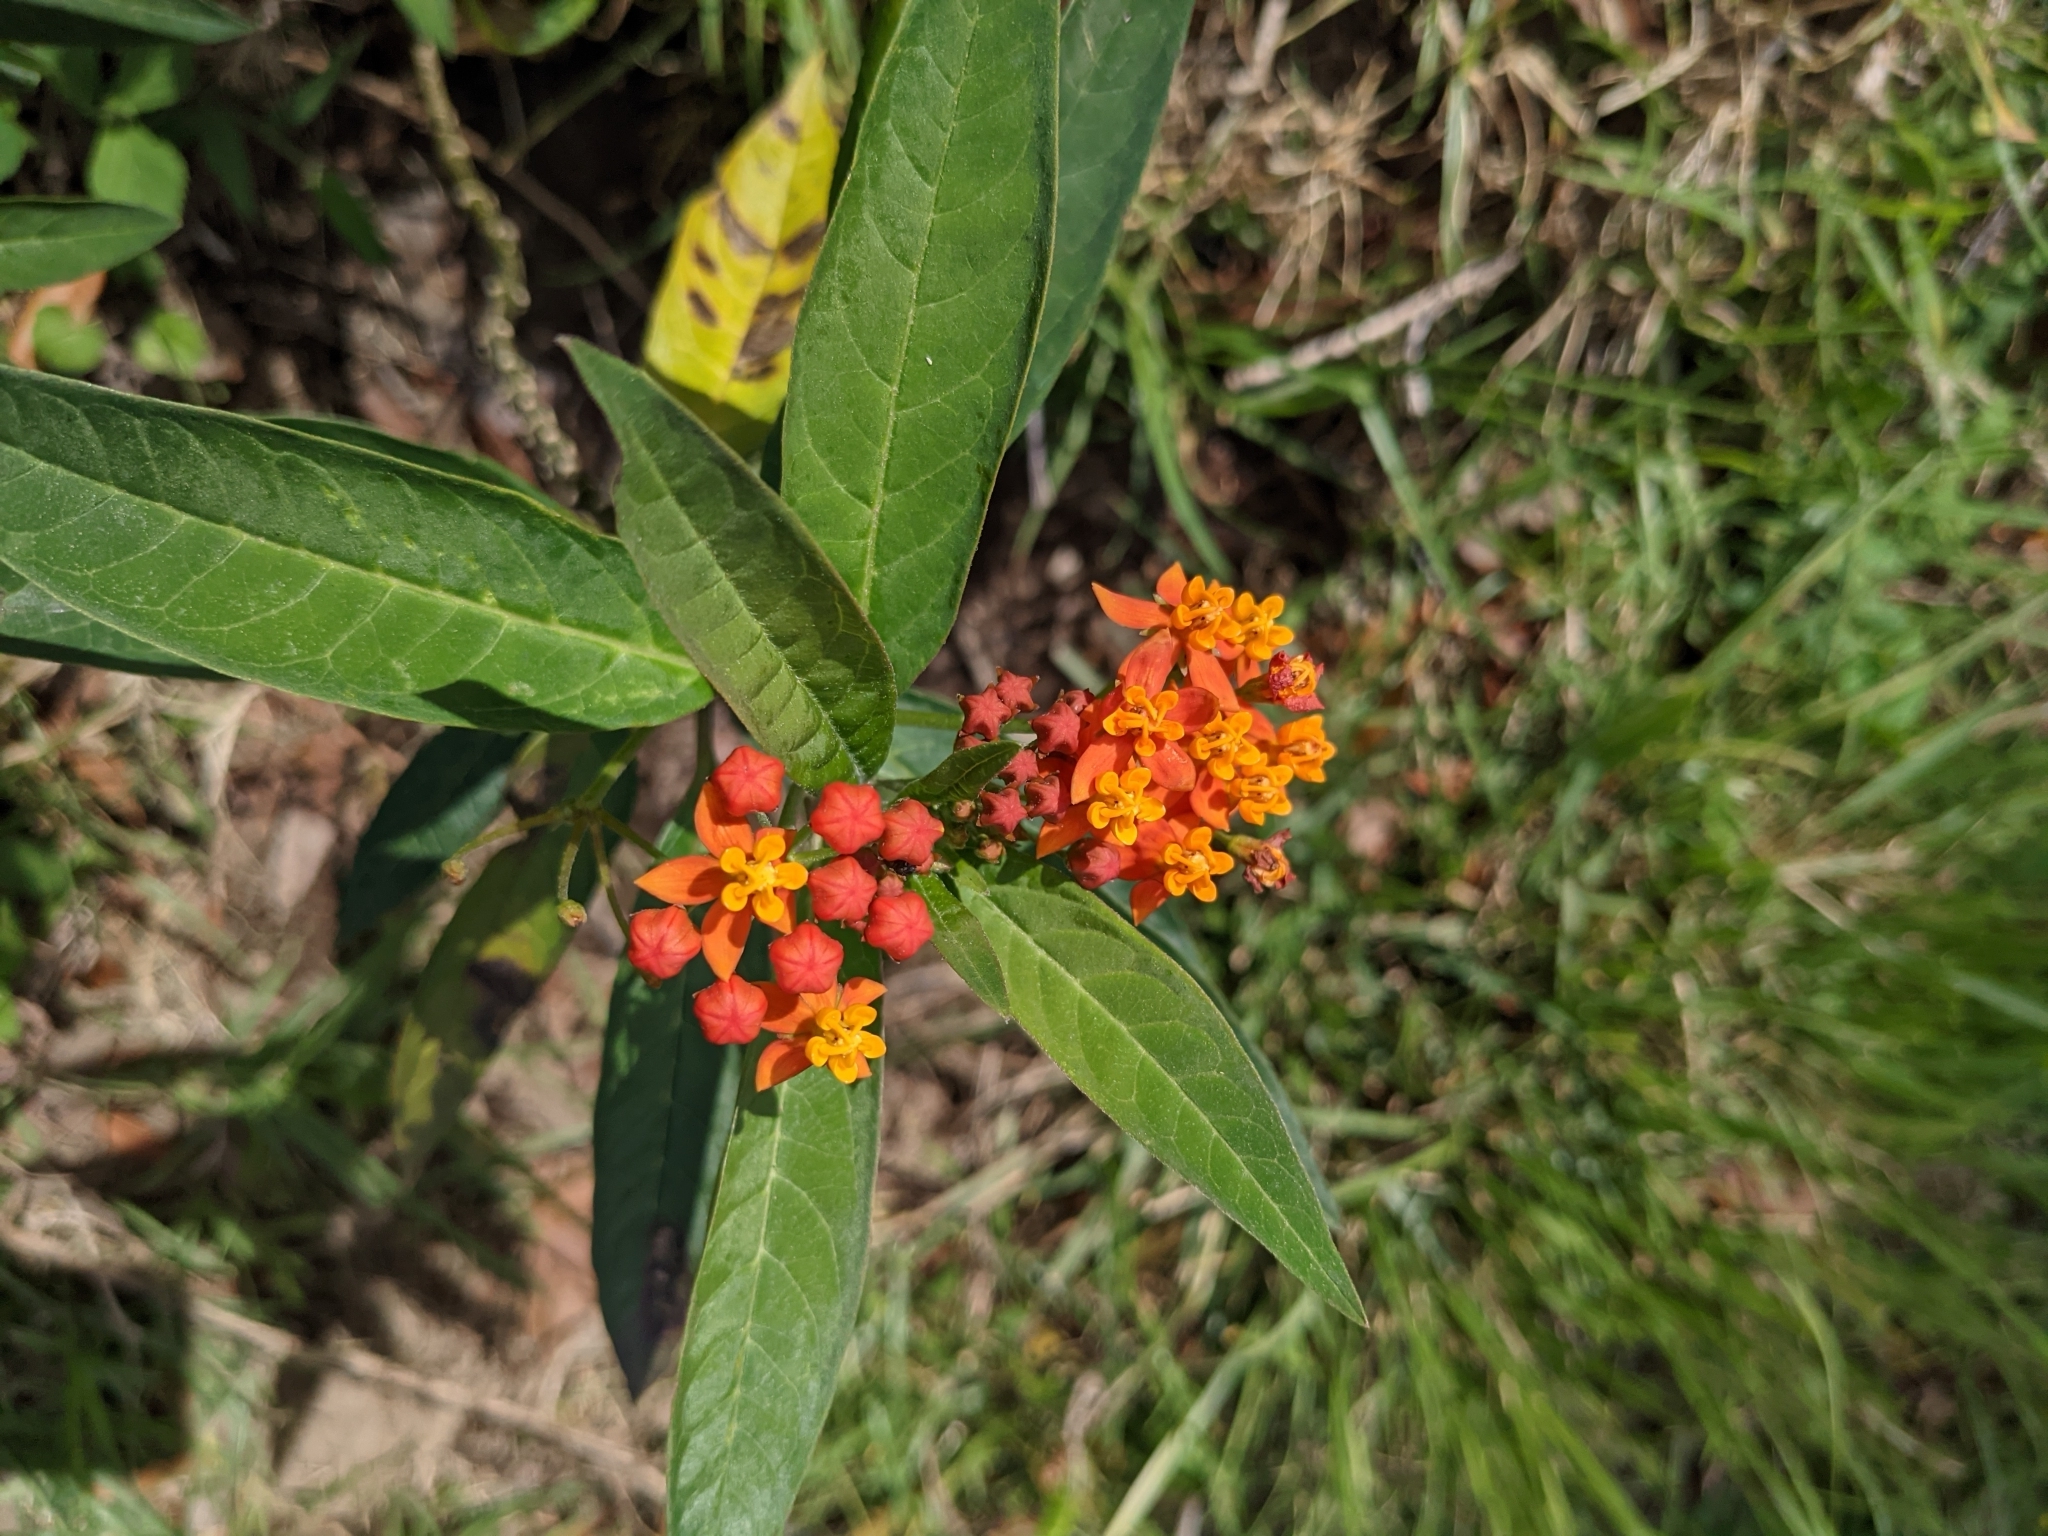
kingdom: Plantae
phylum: Tracheophyta
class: Magnoliopsida
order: Gentianales
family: Apocynaceae
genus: Asclepias
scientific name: Asclepias curassavica
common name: Bloodflower
